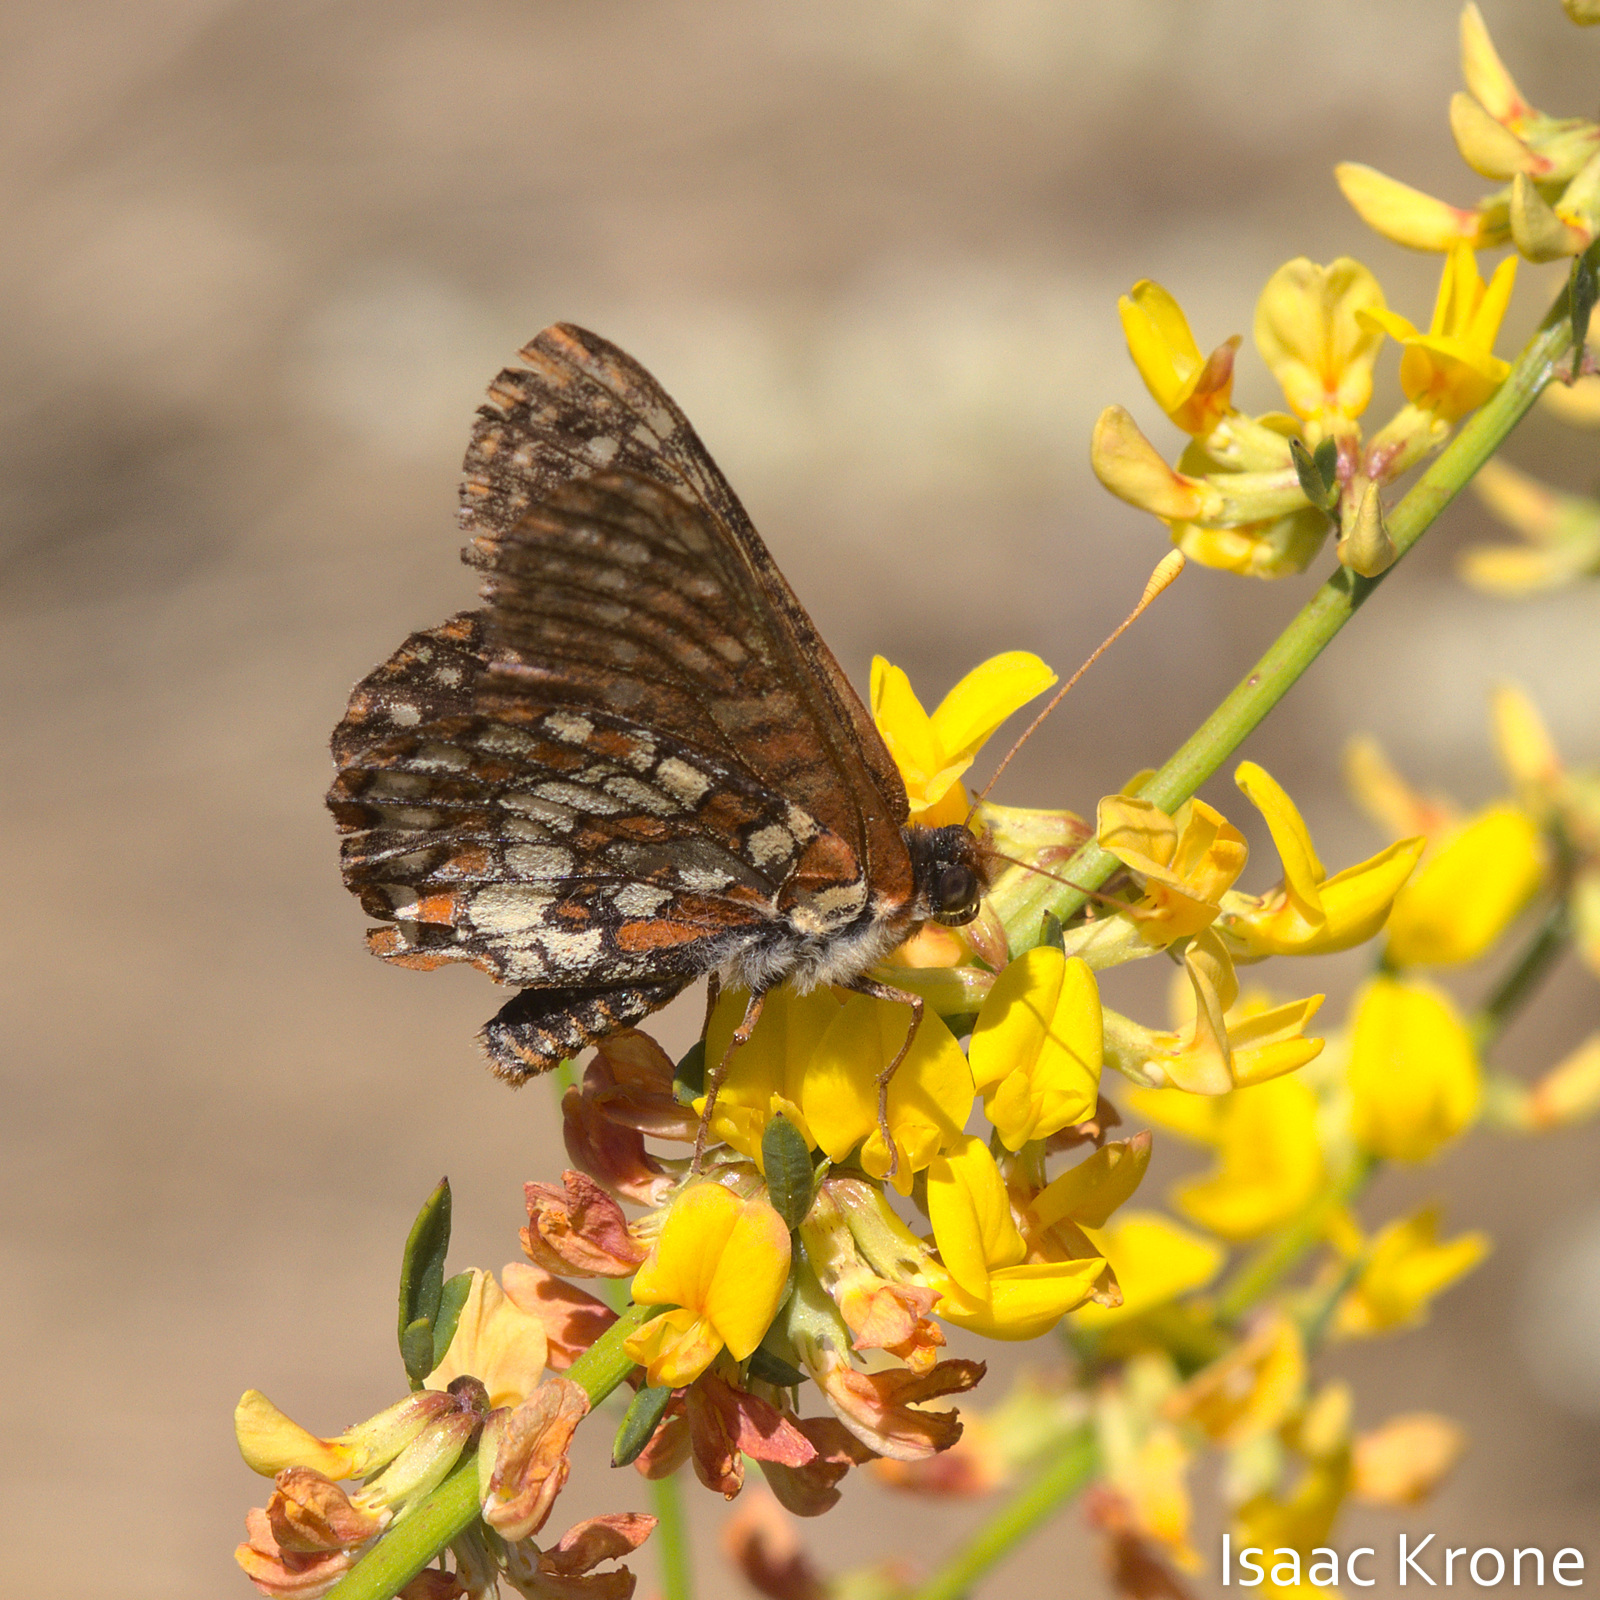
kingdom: Animalia
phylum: Arthropoda
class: Insecta
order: Lepidoptera
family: Nymphalidae
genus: Occidryas
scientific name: Occidryas chalcedona
